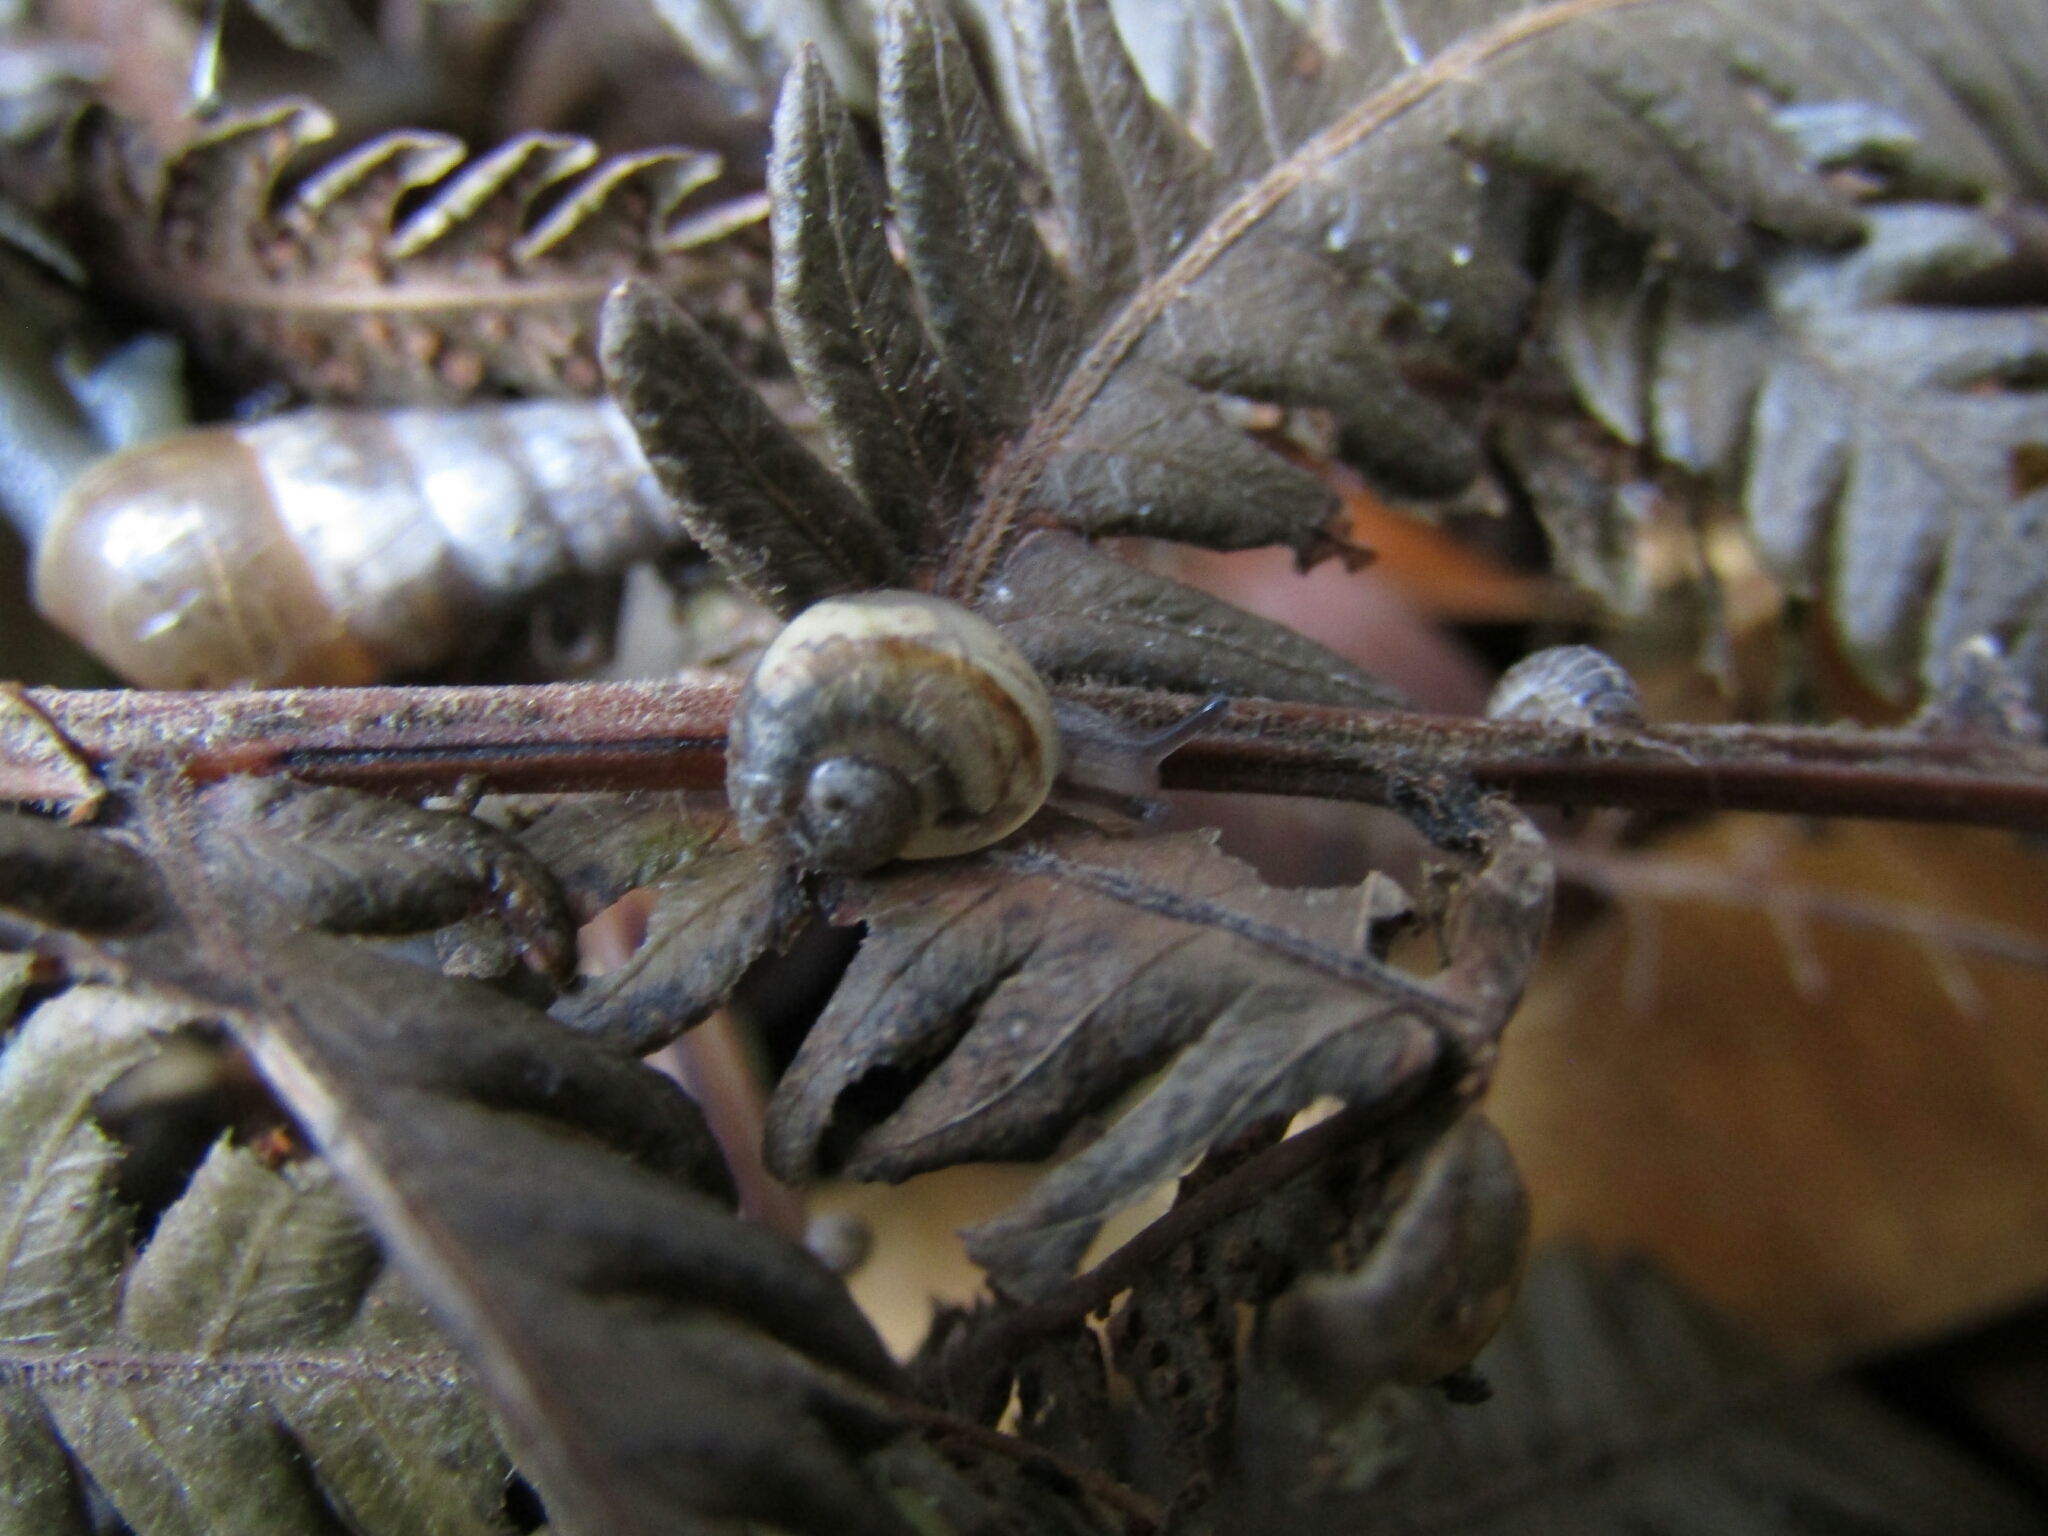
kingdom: Animalia
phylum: Mollusca
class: Gastropoda
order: Stylommatophora
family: Helicidae
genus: Cornu
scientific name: Cornu aspersum
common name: Brown garden snail
